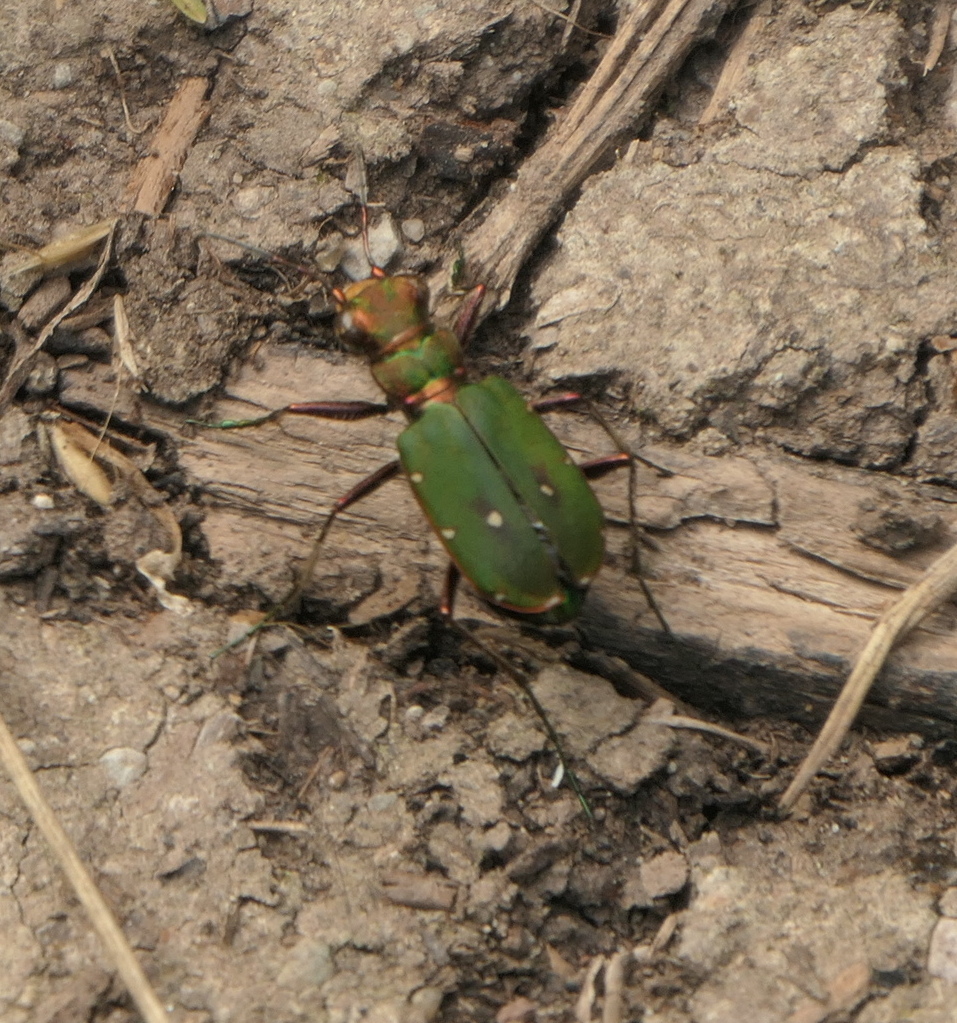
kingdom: Animalia
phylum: Arthropoda
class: Insecta
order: Coleoptera
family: Carabidae
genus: Cicindela
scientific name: Cicindela campestris
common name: Common tiger beetle
